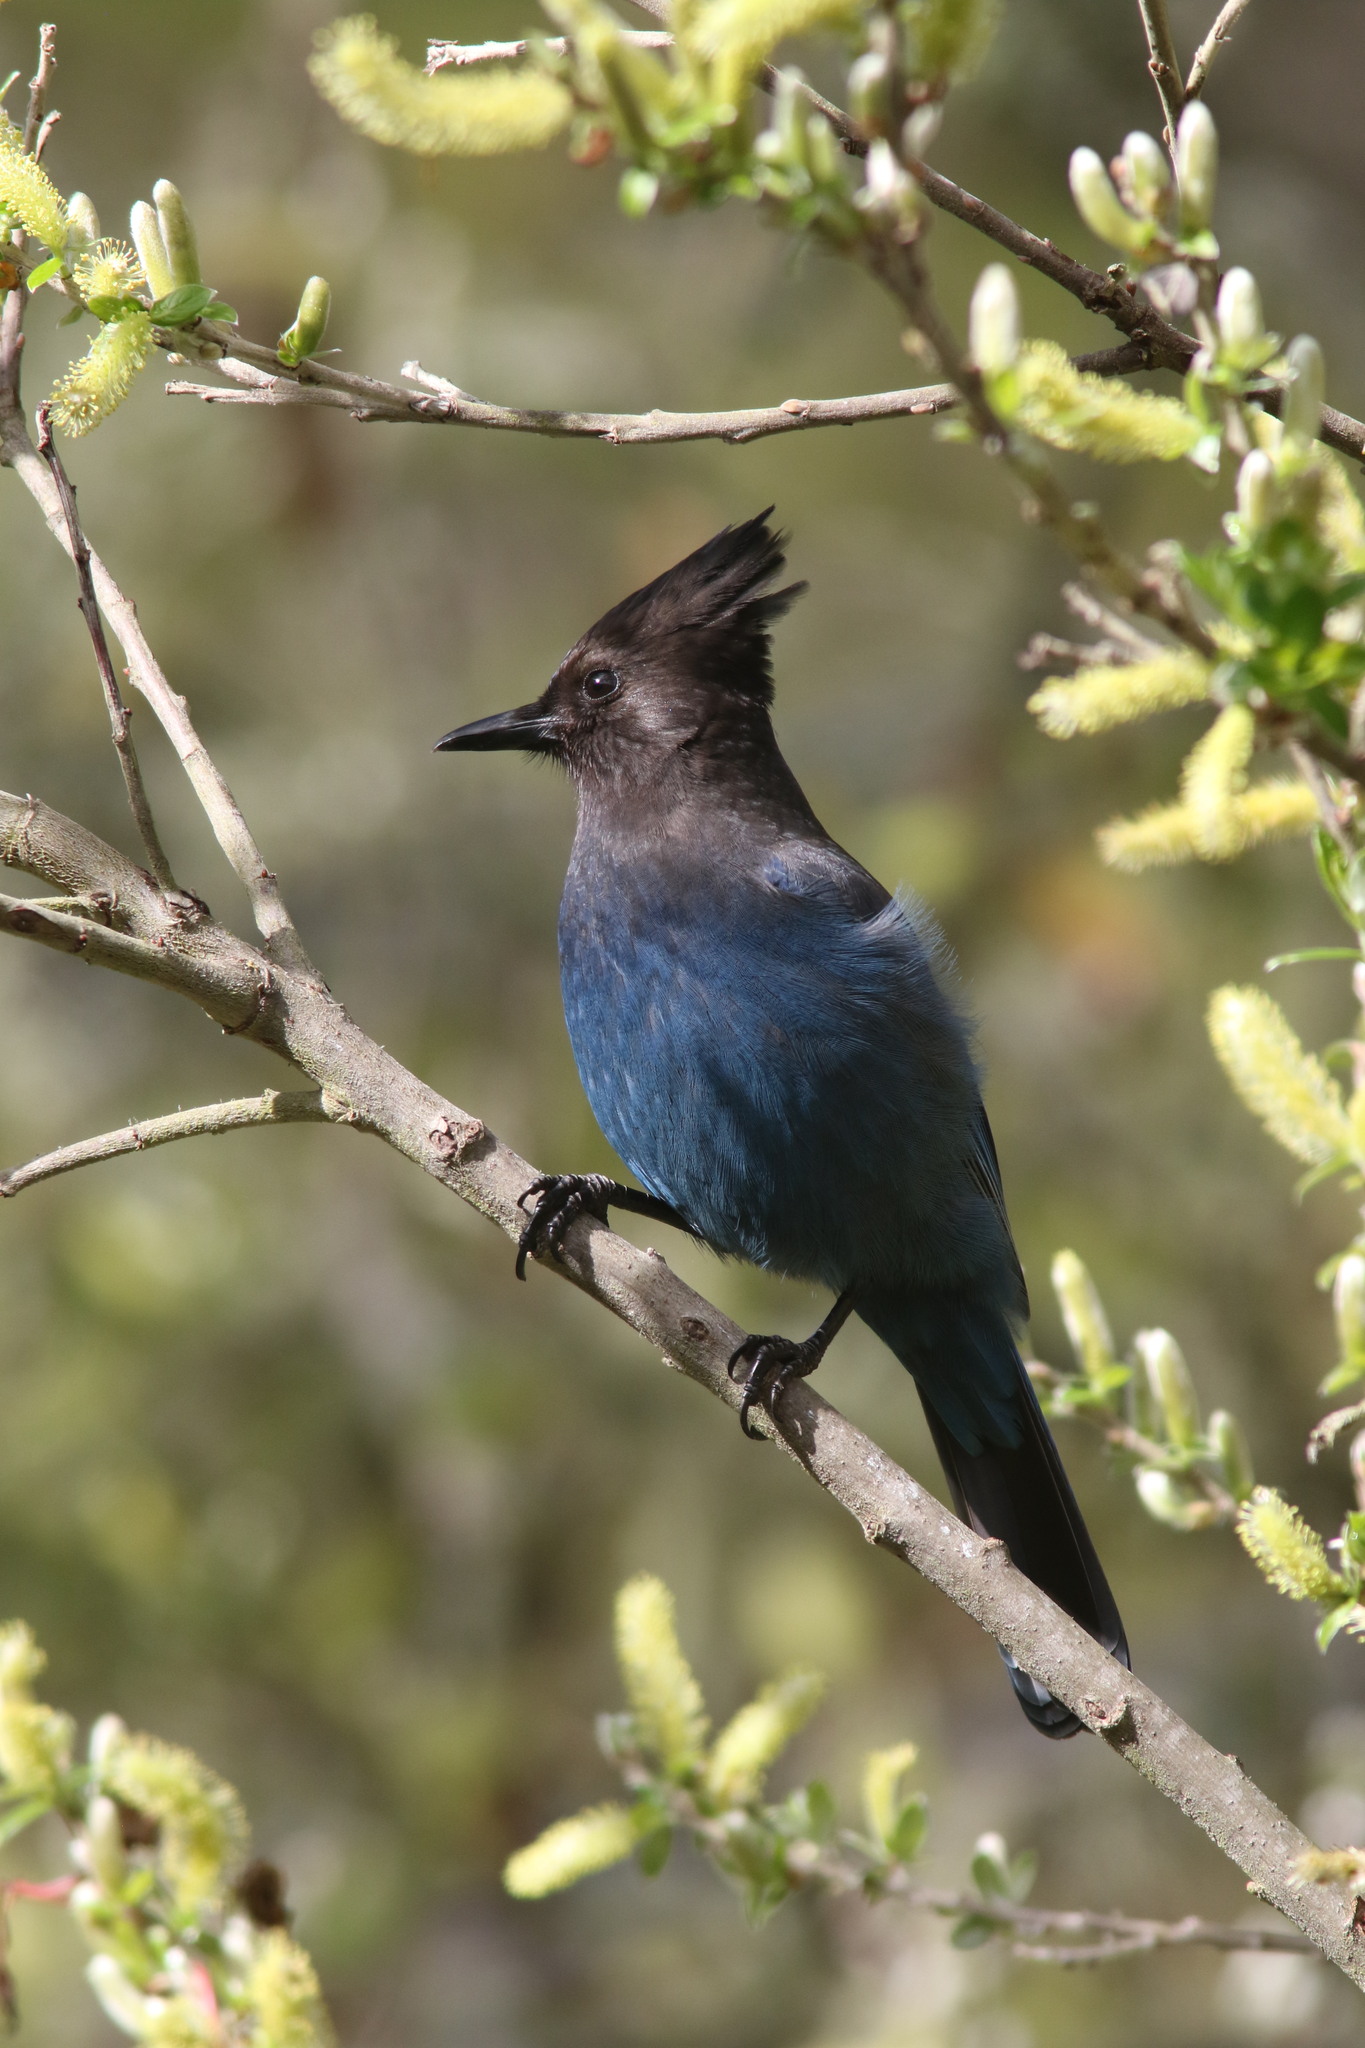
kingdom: Animalia
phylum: Chordata
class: Aves
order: Passeriformes
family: Corvidae
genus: Cyanocitta
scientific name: Cyanocitta stelleri
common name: Steller's jay
